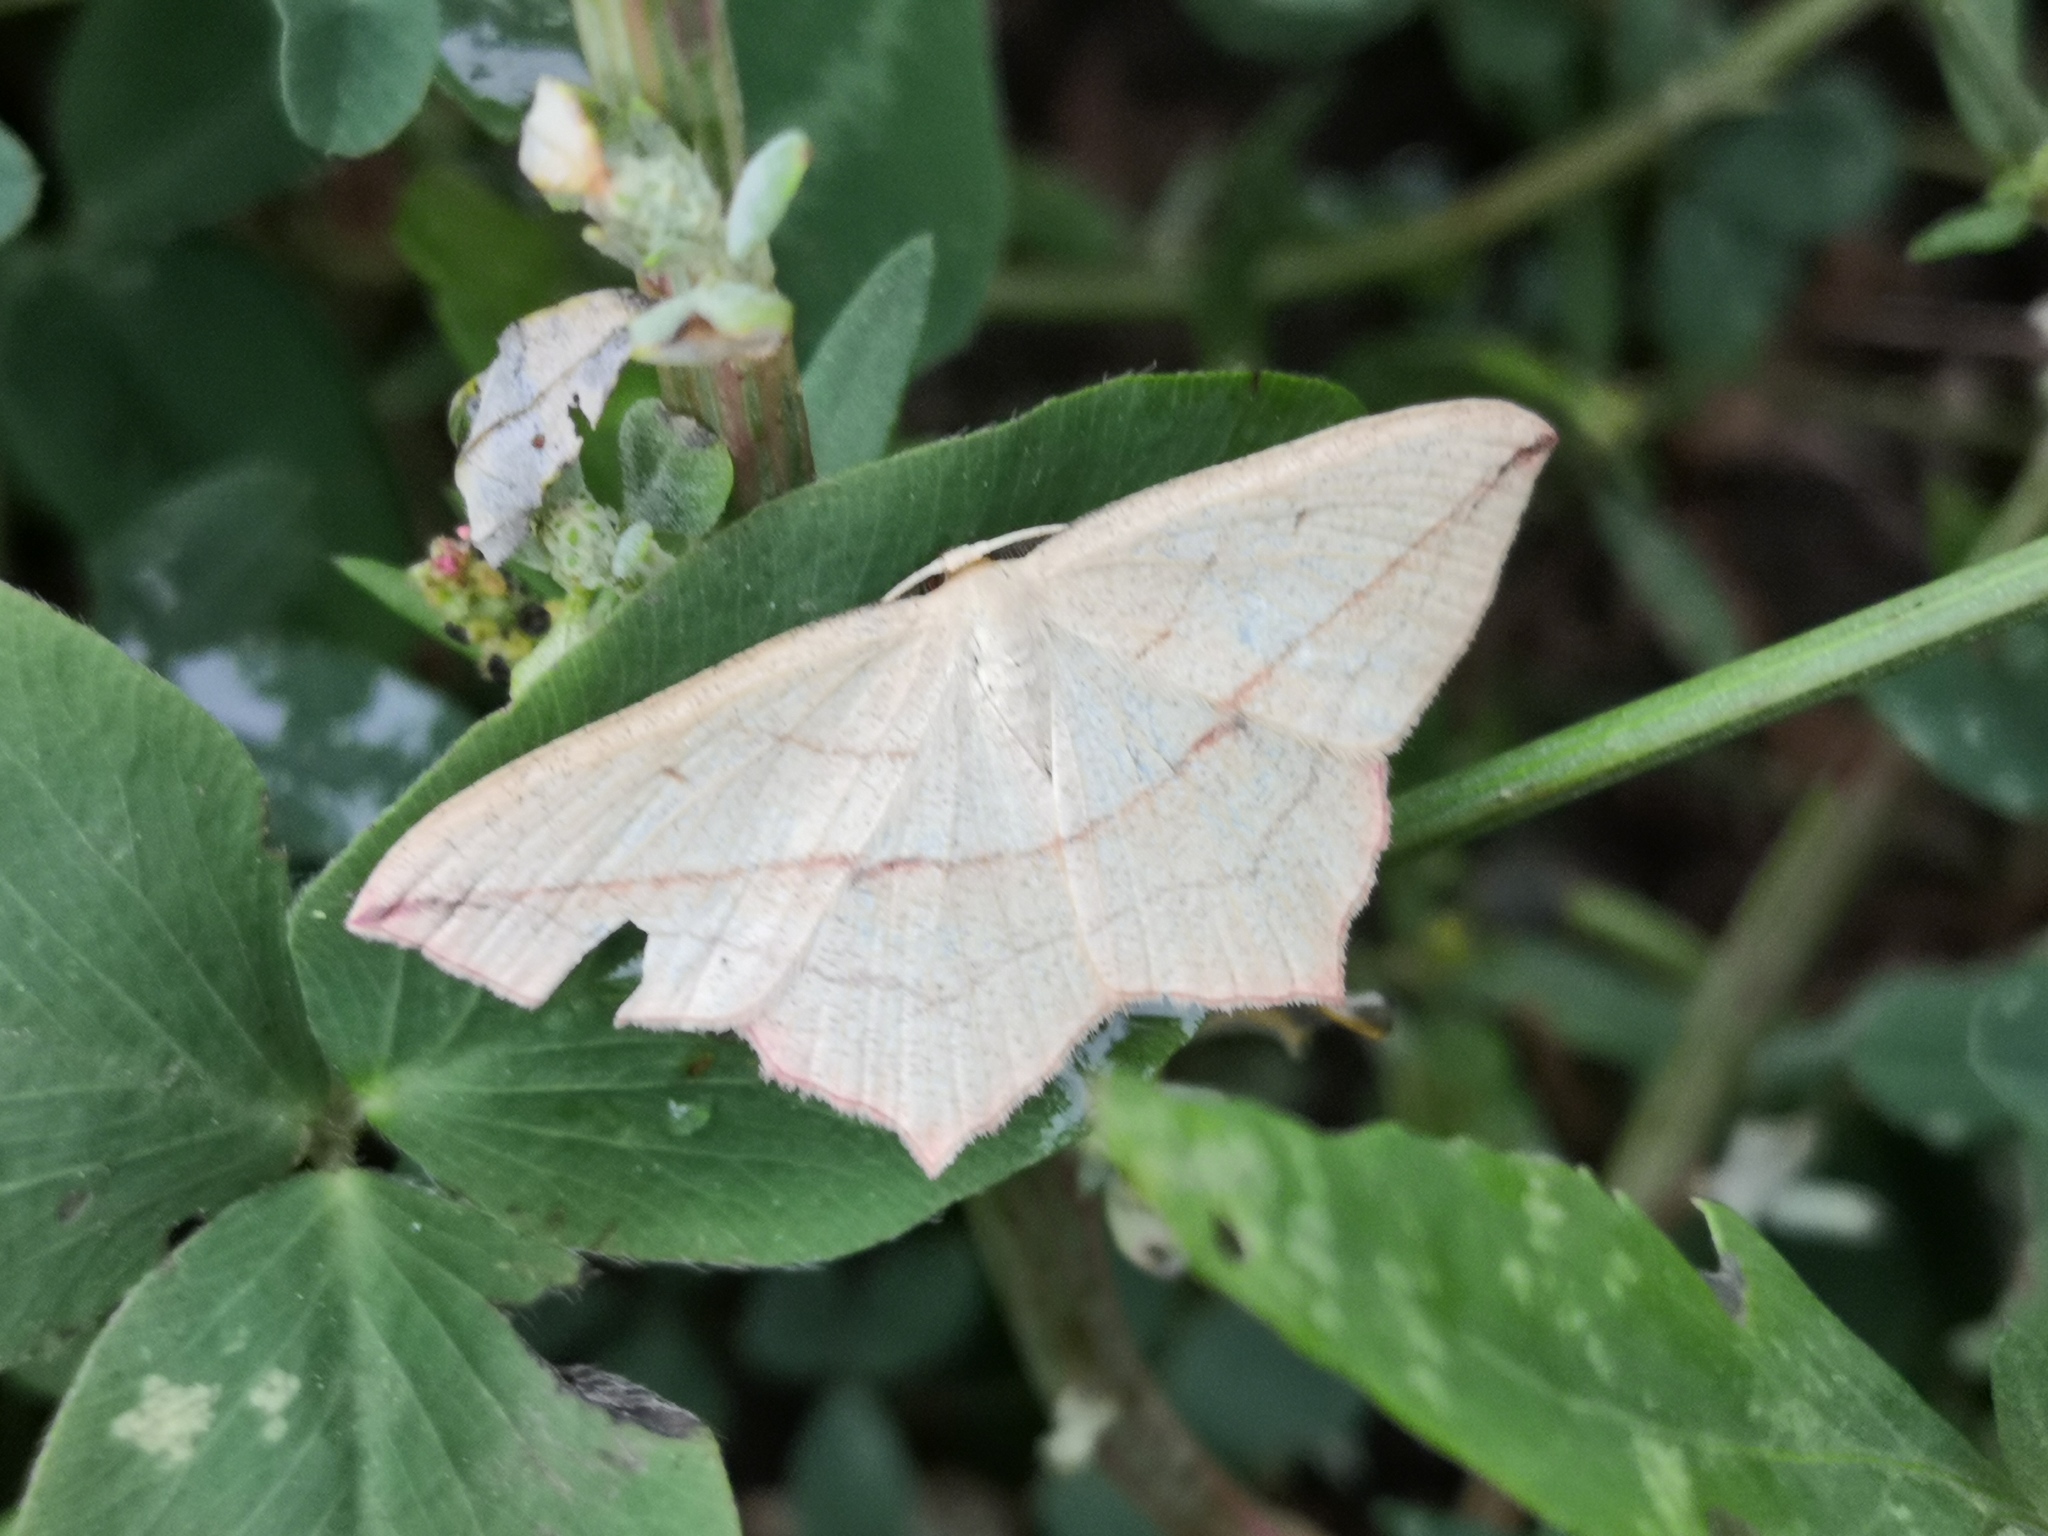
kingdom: Animalia
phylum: Arthropoda
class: Insecta
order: Lepidoptera
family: Geometridae
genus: Timandra
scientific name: Timandra comae
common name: Blood-vein
